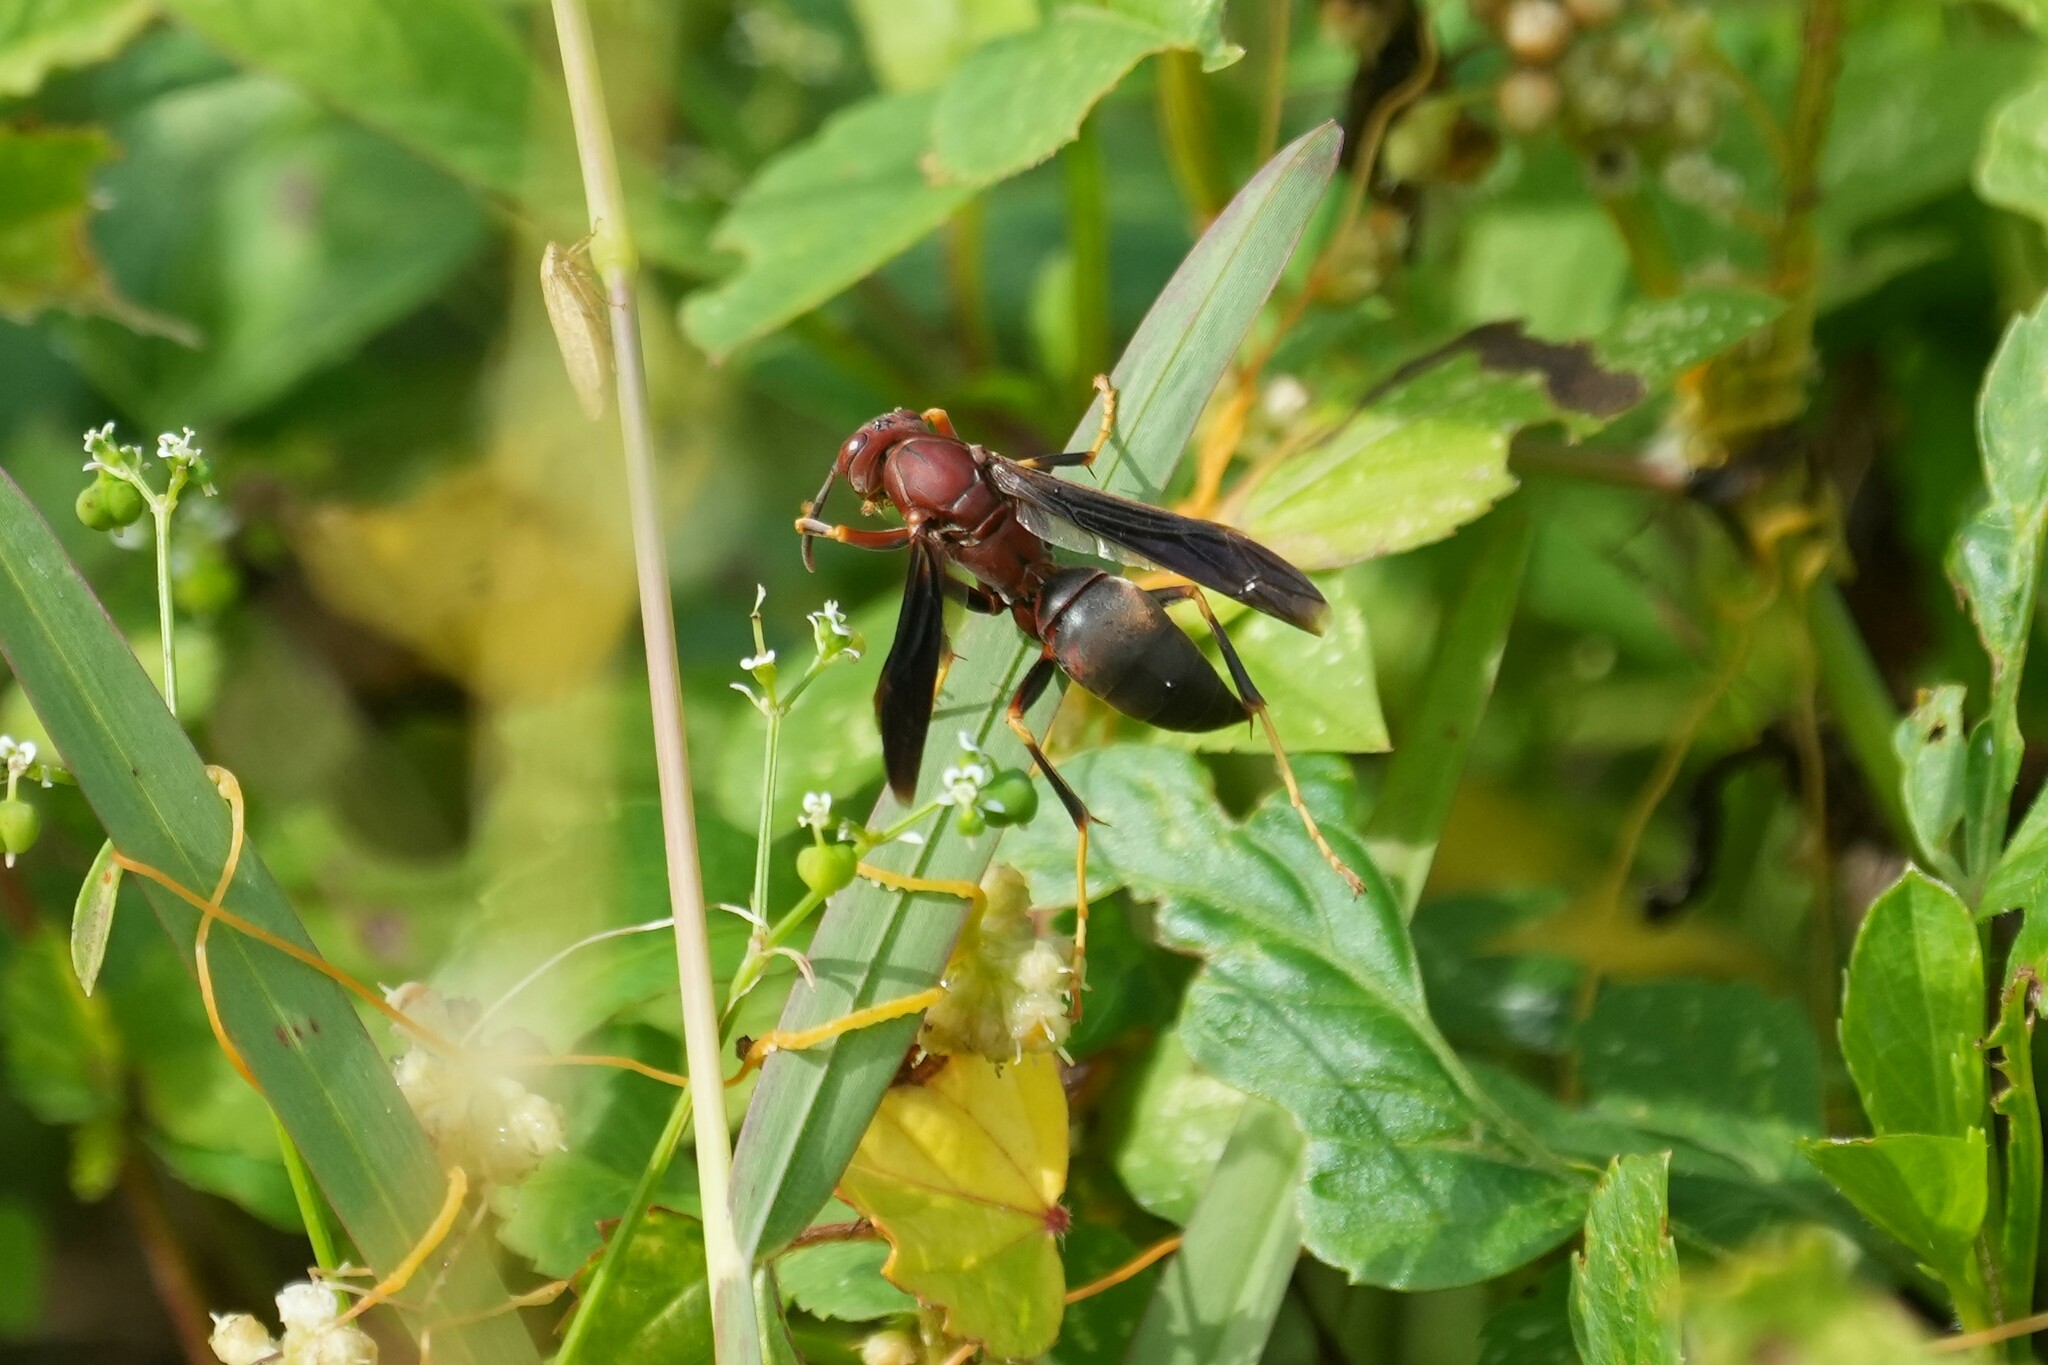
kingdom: Animalia
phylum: Arthropoda
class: Insecta
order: Hymenoptera
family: Eumenidae
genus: Polistes
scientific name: Polistes metricus
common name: Metric paper wasp
